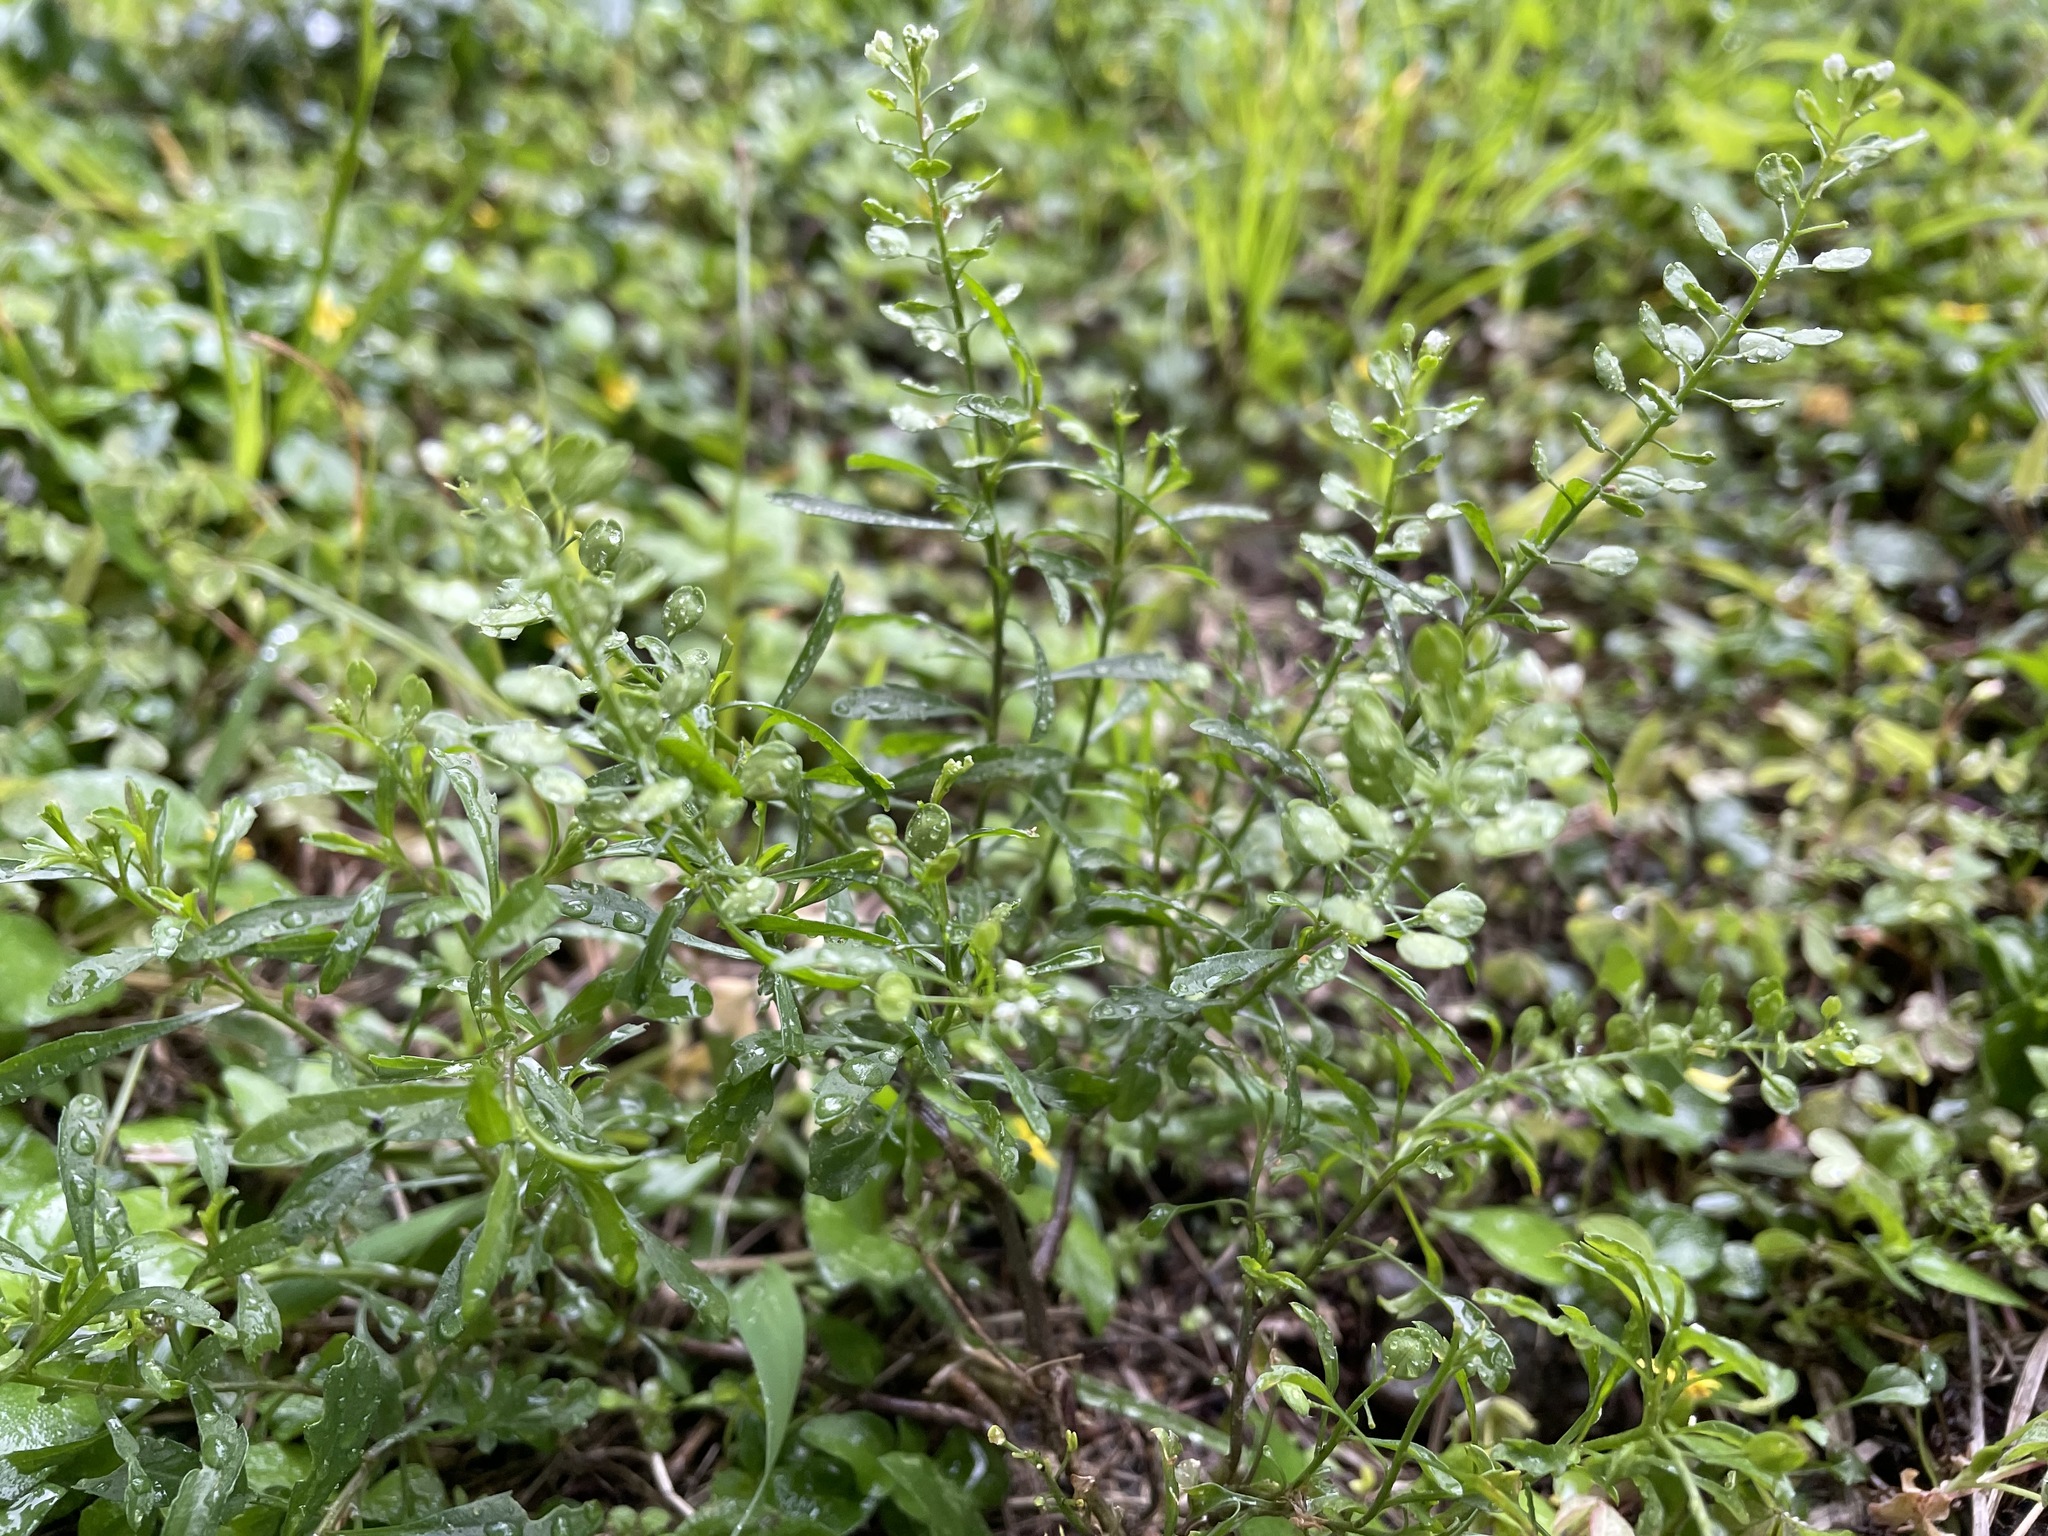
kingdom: Plantae
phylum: Tracheophyta
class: Magnoliopsida
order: Brassicales
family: Brassicaceae
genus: Lepidium
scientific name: Lepidium virginicum
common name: Least pepperwort
